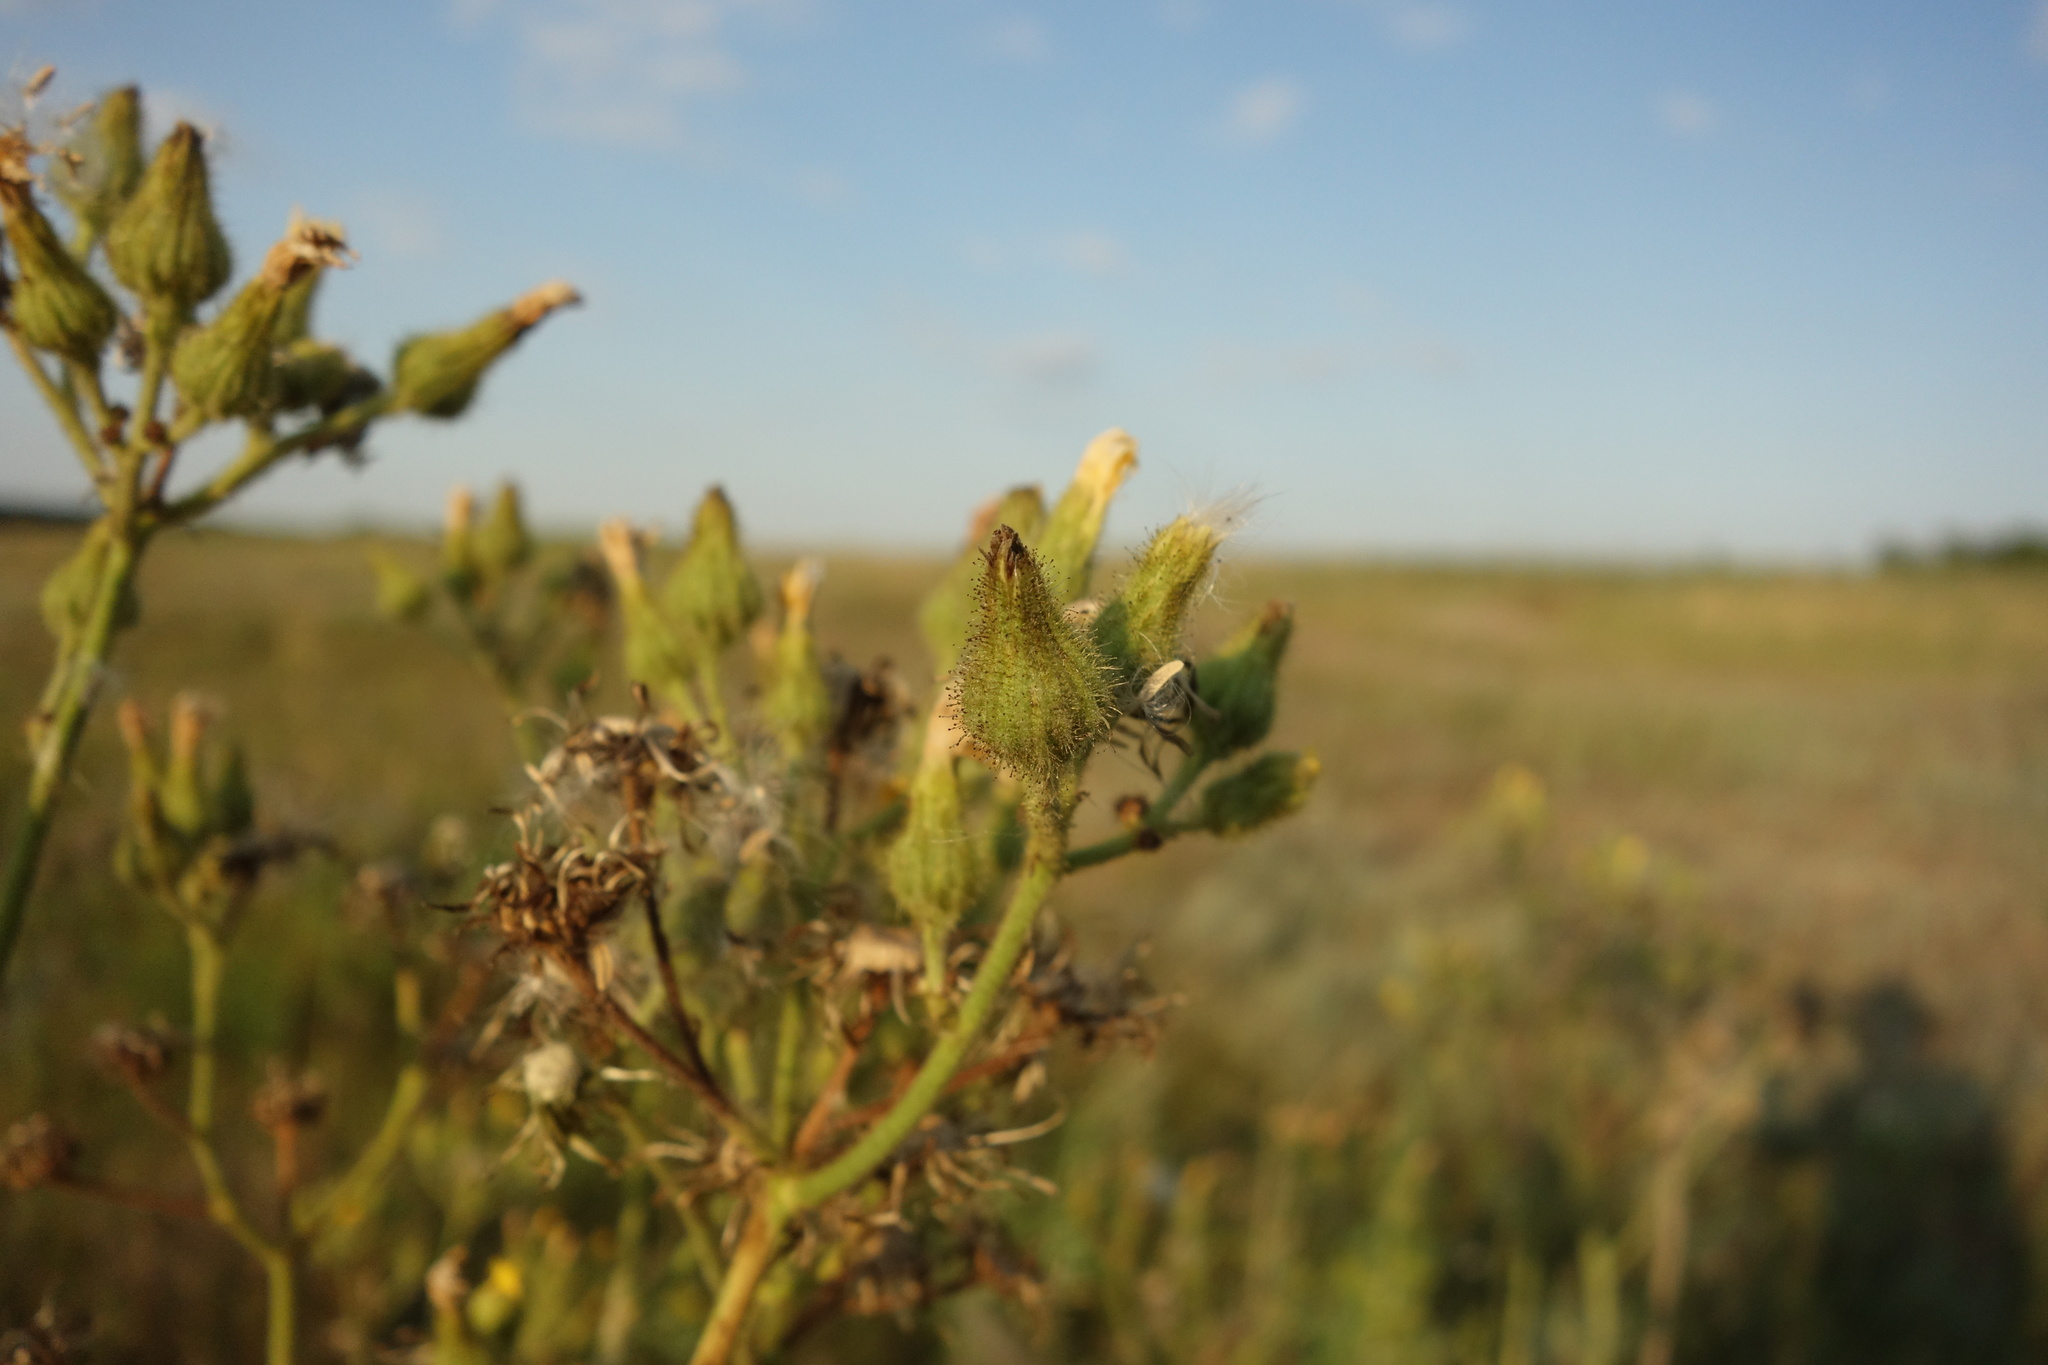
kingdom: Plantae
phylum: Tracheophyta
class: Magnoliopsida
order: Asterales
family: Asteraceae
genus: Sonchus
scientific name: Sonchus palustris
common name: Marsh sow-thistle
